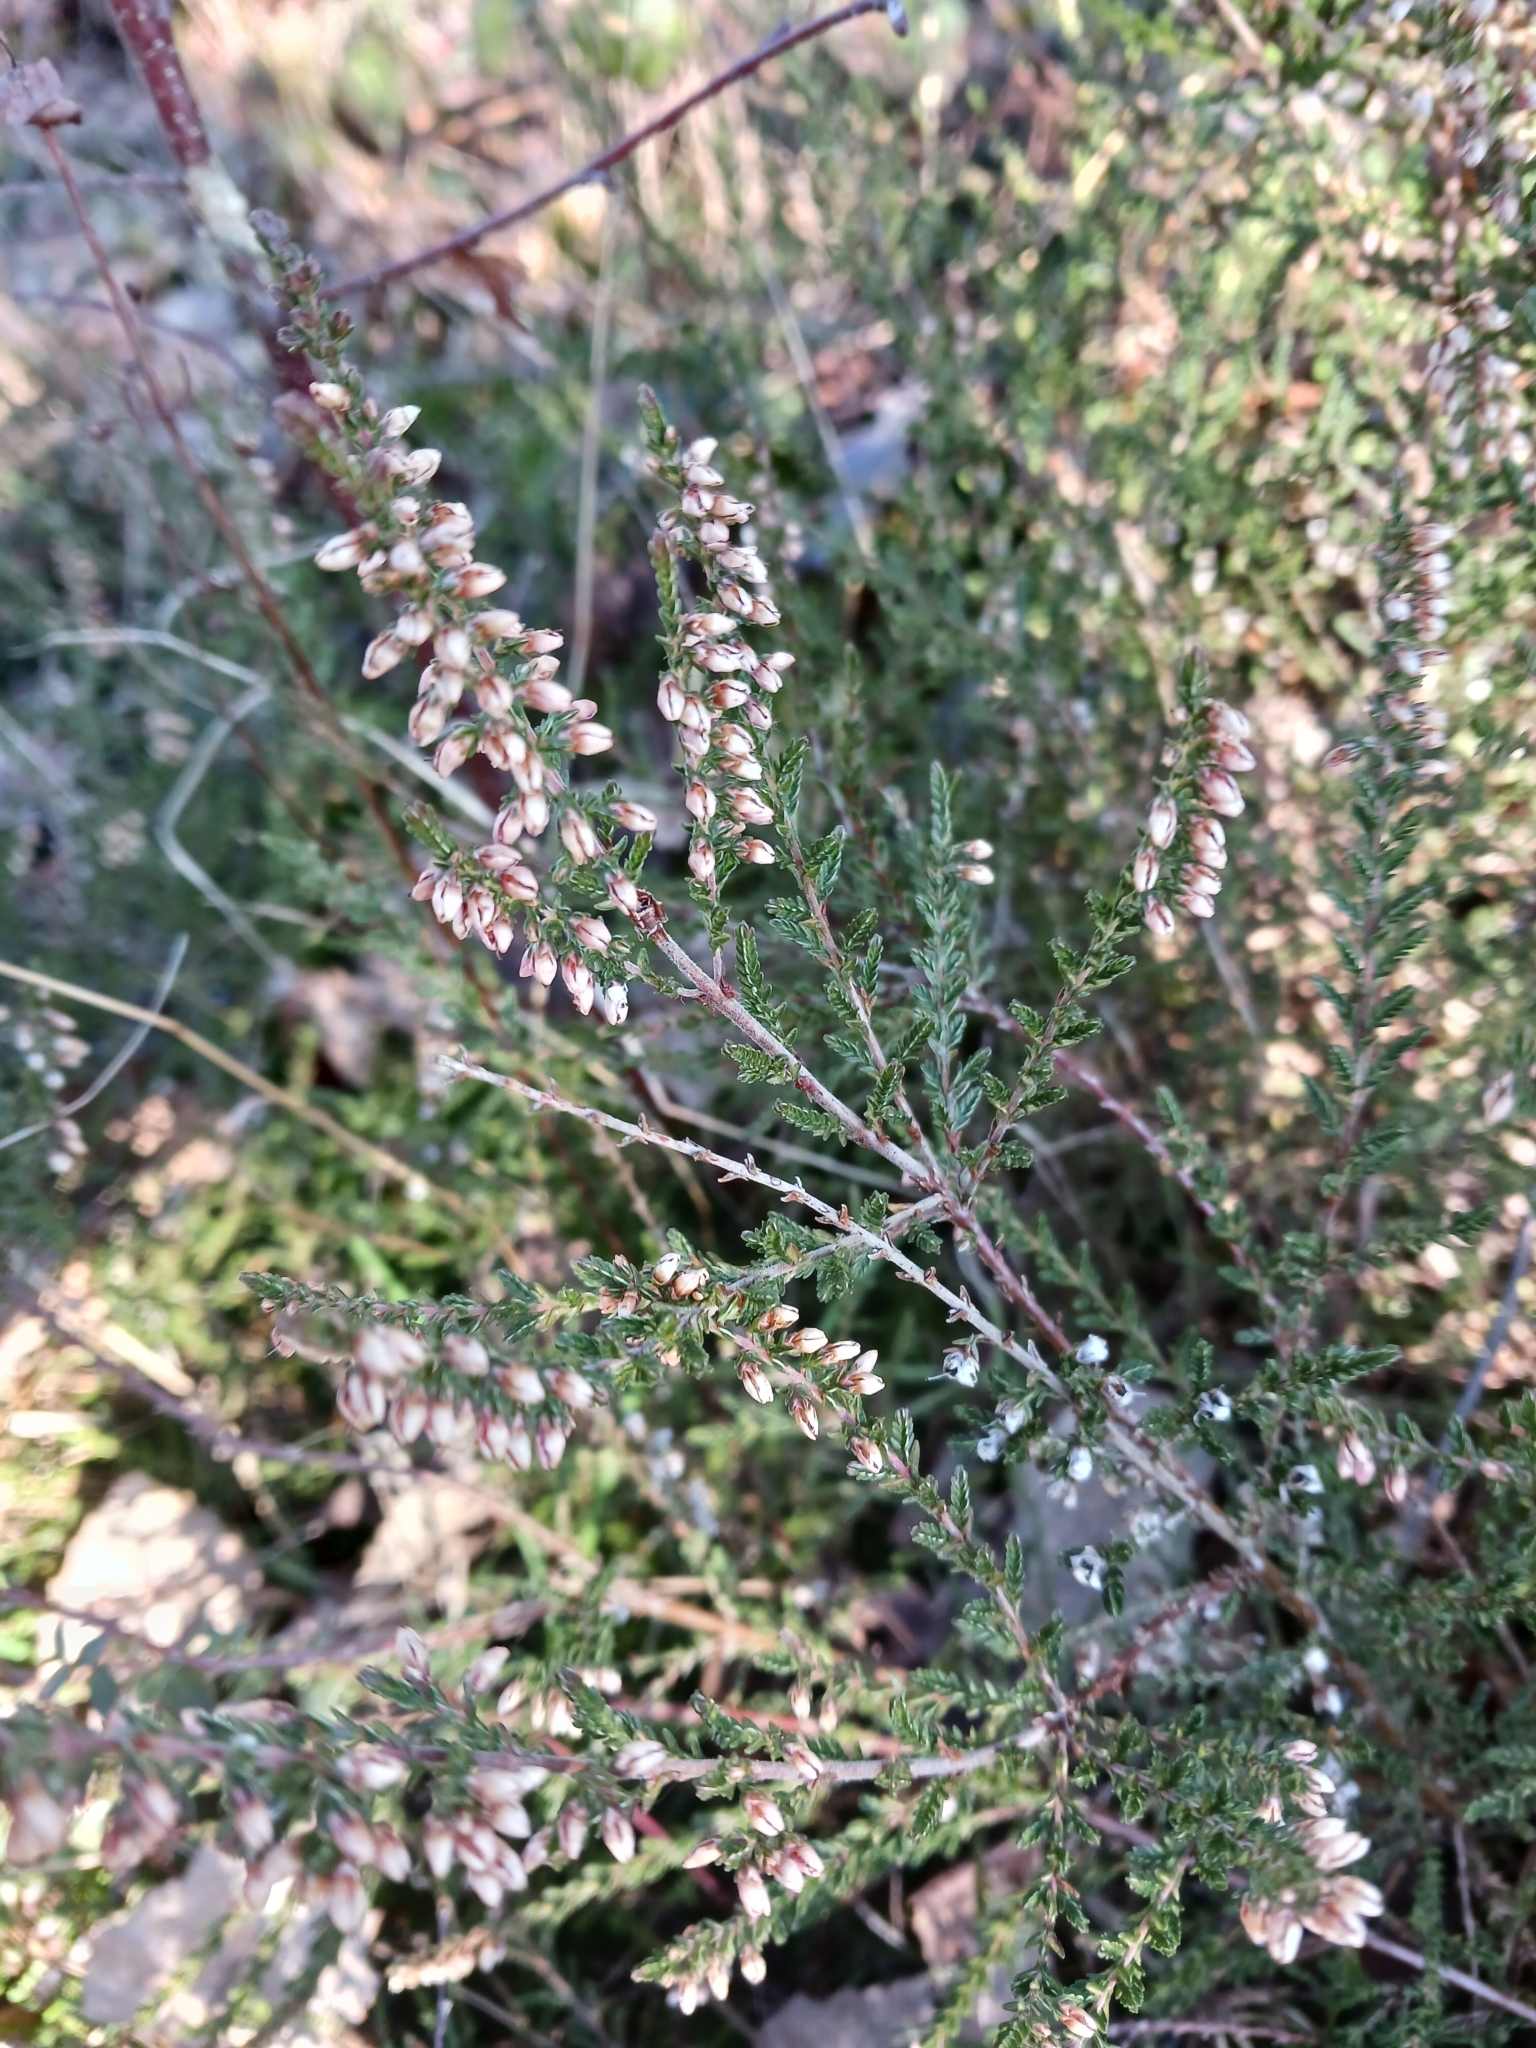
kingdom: Plantae
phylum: Tracheophyta
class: Magnoliopsida
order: Ericales
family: Ericaceae
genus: Calluna
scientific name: Calluna vulgaris
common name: Heather
